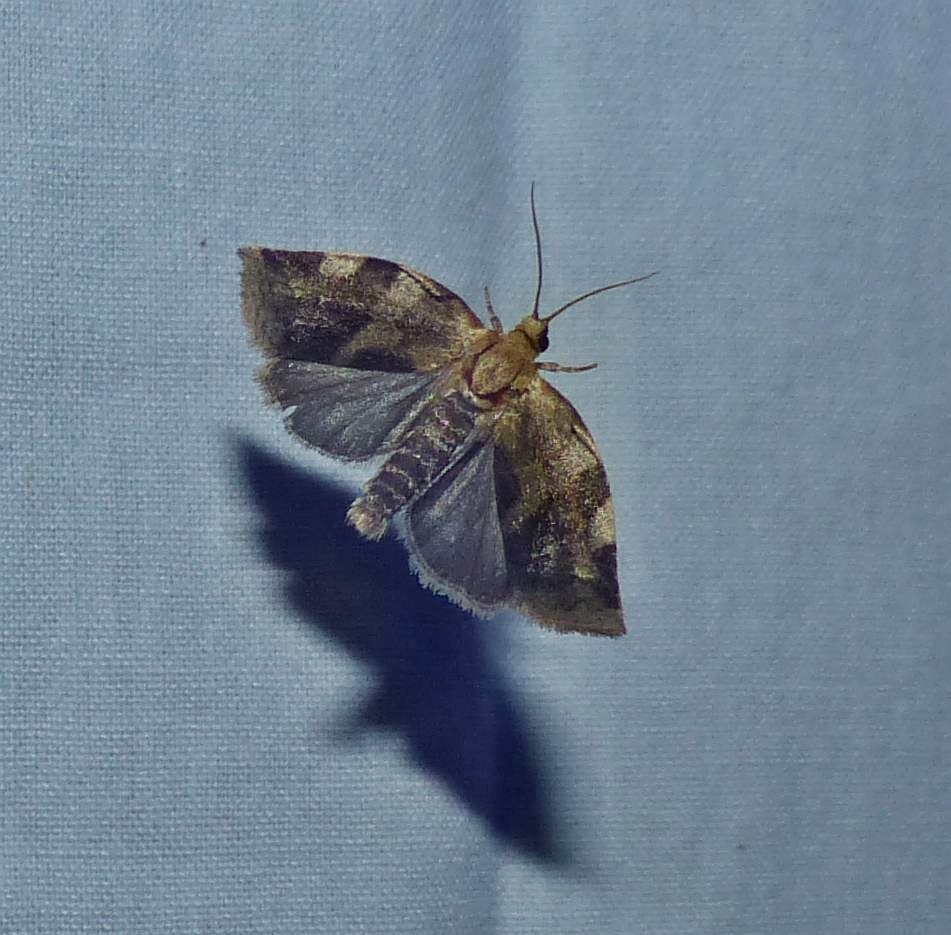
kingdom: Animalia
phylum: Arthropoda
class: Insecta
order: Lepidoptera
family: Tortricidae
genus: Choristoneura
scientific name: Choristoneura fractivittana
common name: Broken-banded leafroller moth
